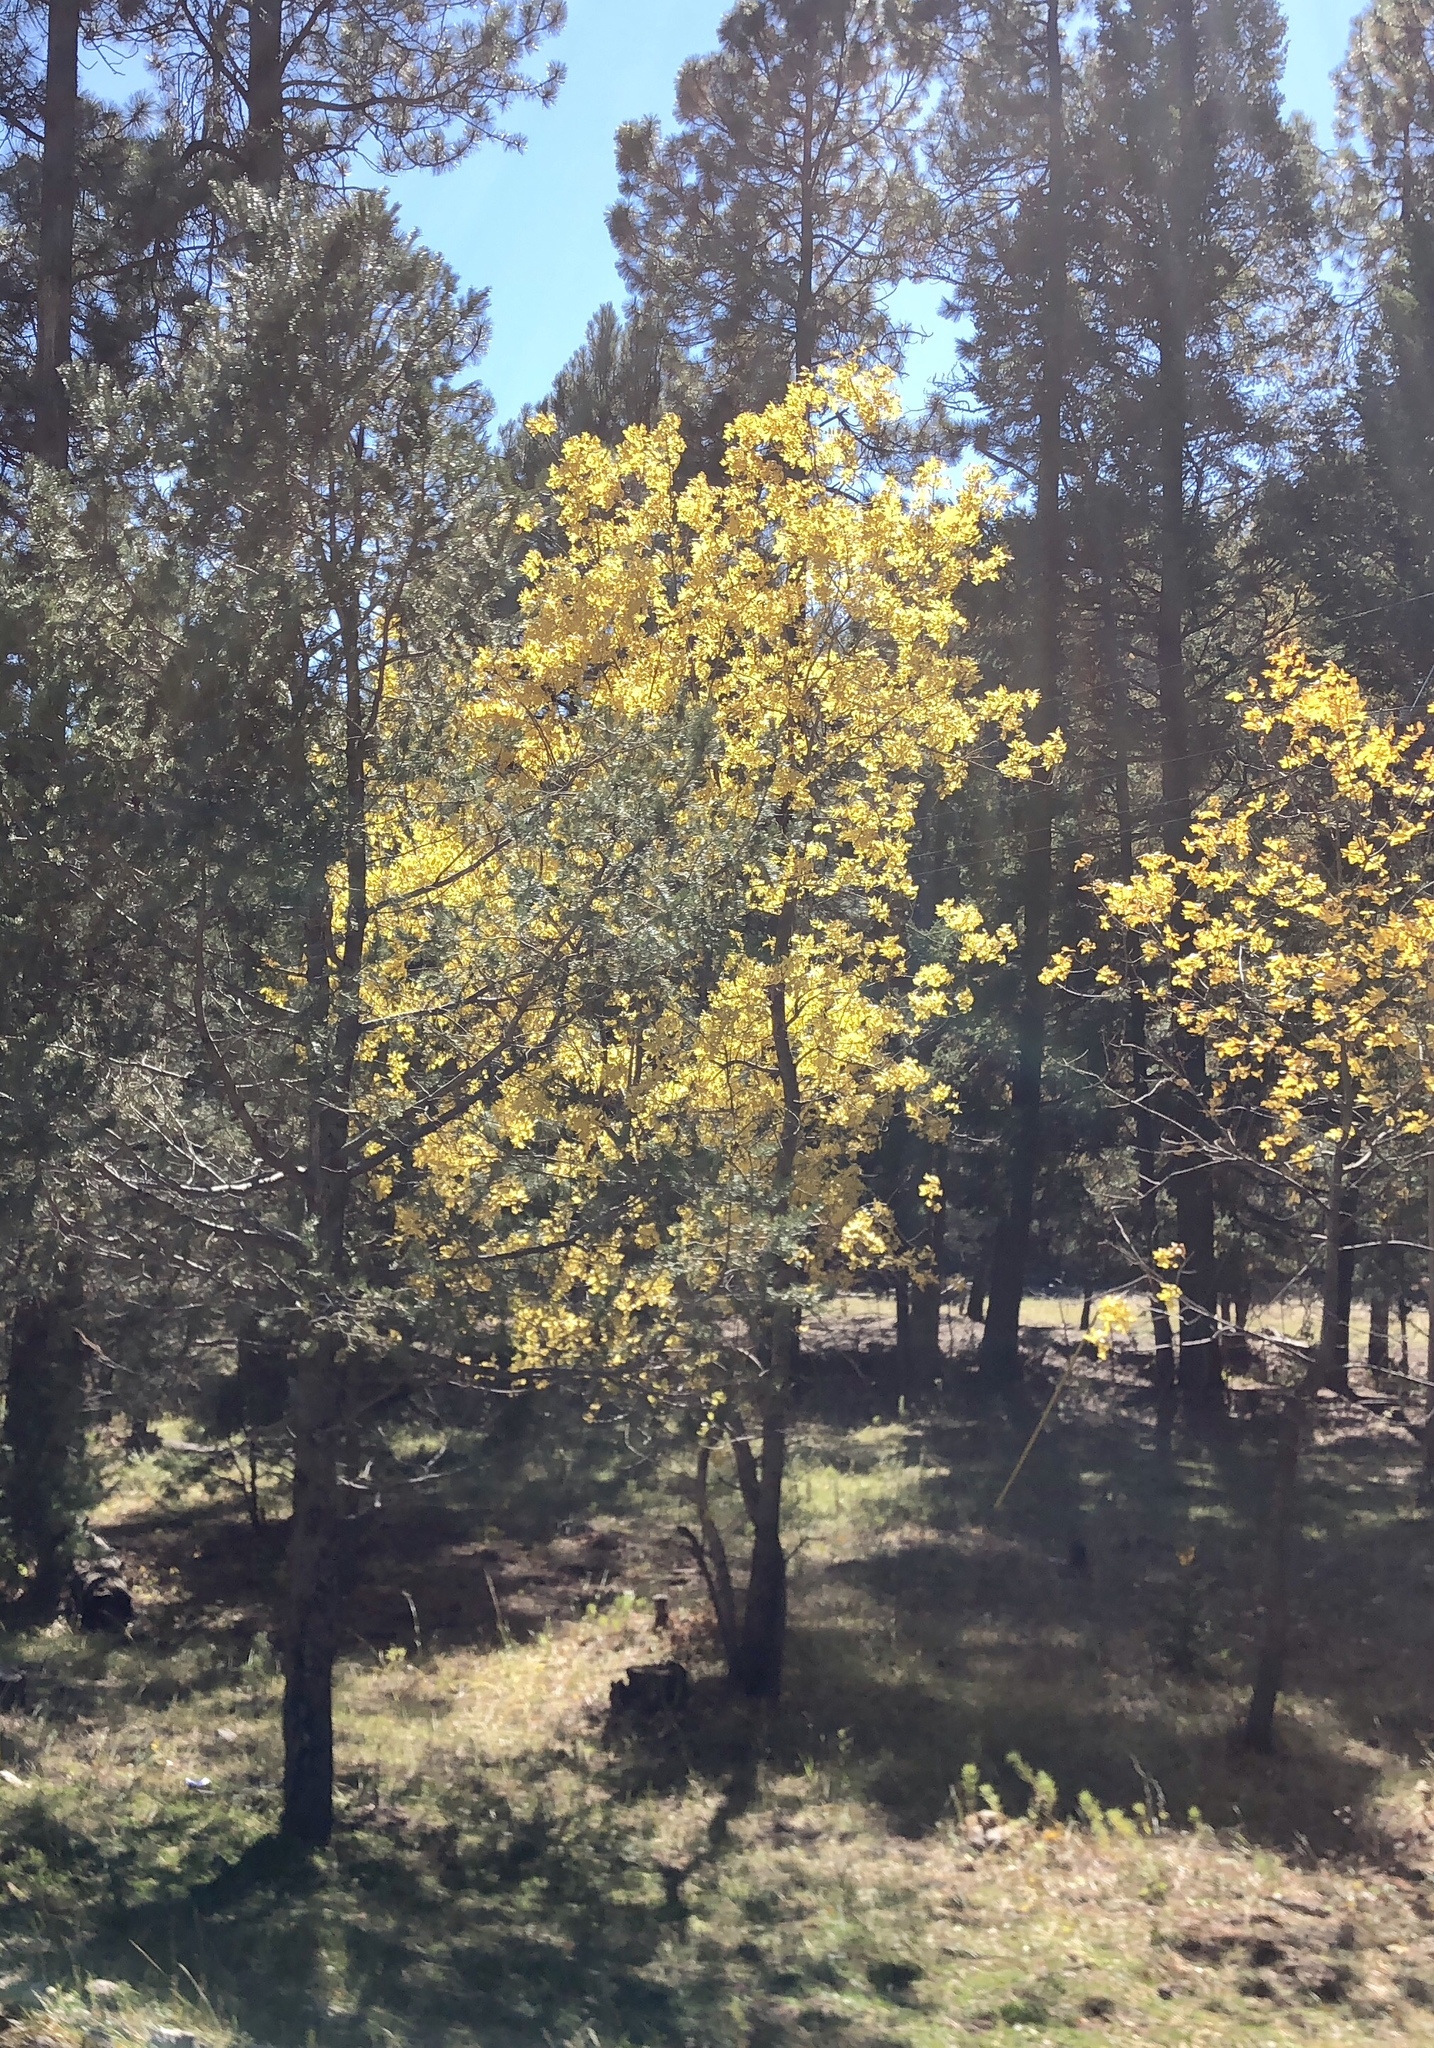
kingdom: Plantae
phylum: Tracheophyta
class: Magnoliopsida
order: Malpighiales
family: Salicaceae
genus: Populus
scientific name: Populus tremuloides
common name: Quaking aspen
